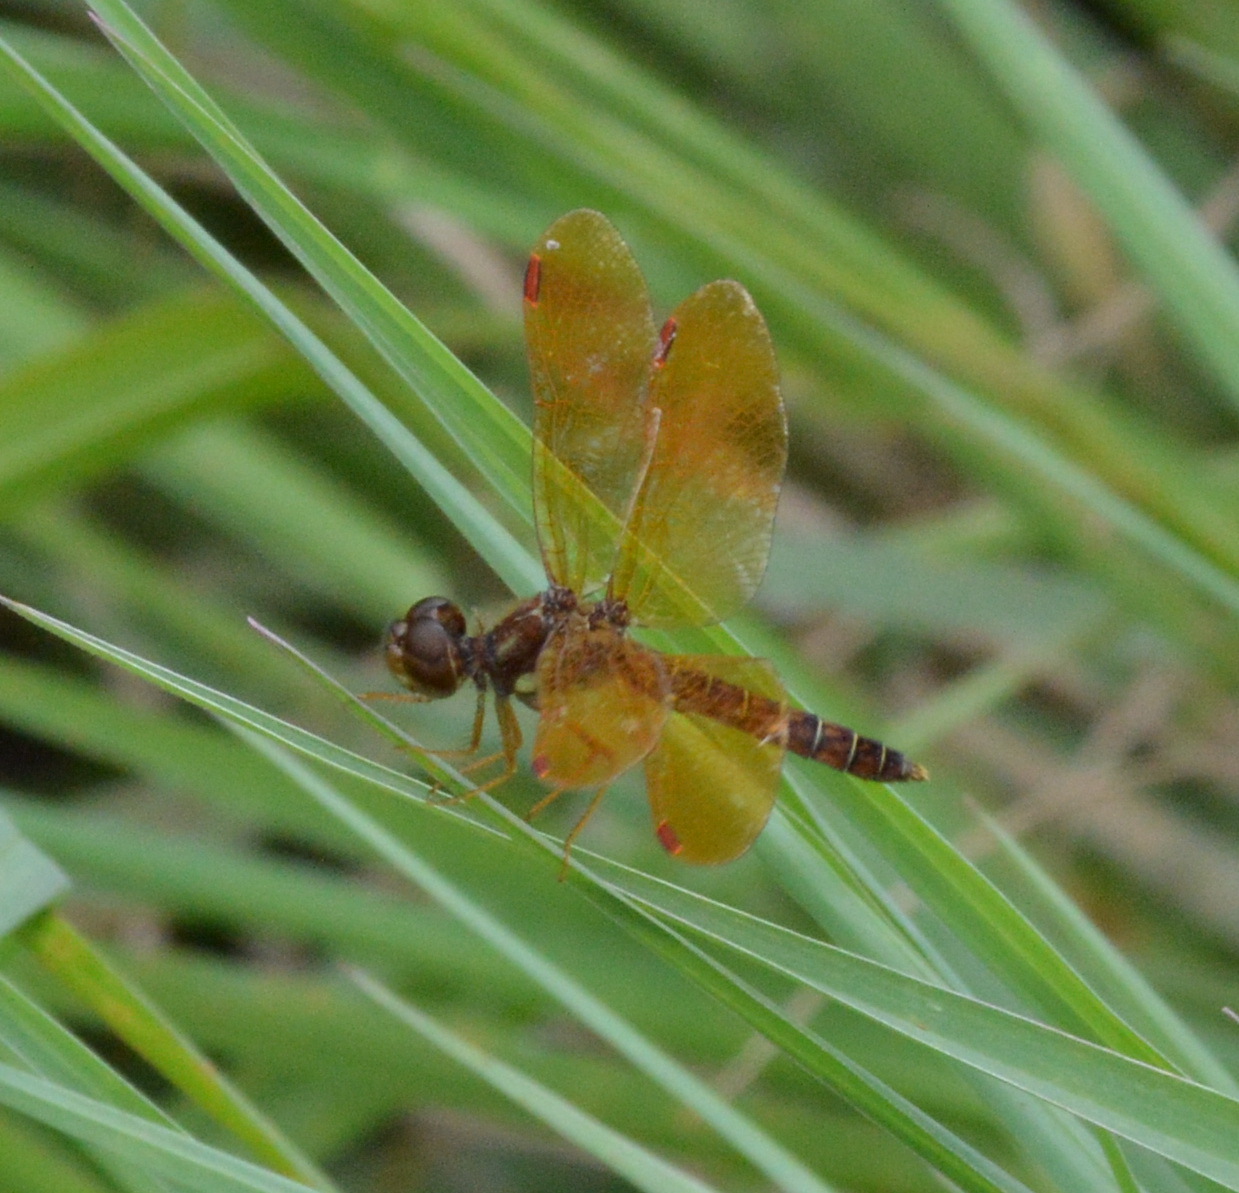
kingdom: Animalia
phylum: Arthropoda
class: Insecta
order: Odonata
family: Libellulidae
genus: Perithemis
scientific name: Perithemis tenera
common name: Eastern amberwing
